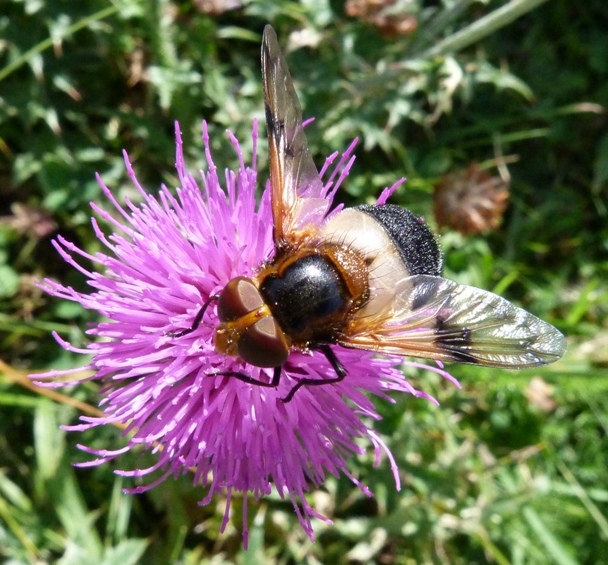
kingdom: Animalia
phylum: Arthropoda
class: Insecta
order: Diptera
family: Syrphidae
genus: Volucella
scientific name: Volucella pellucens
